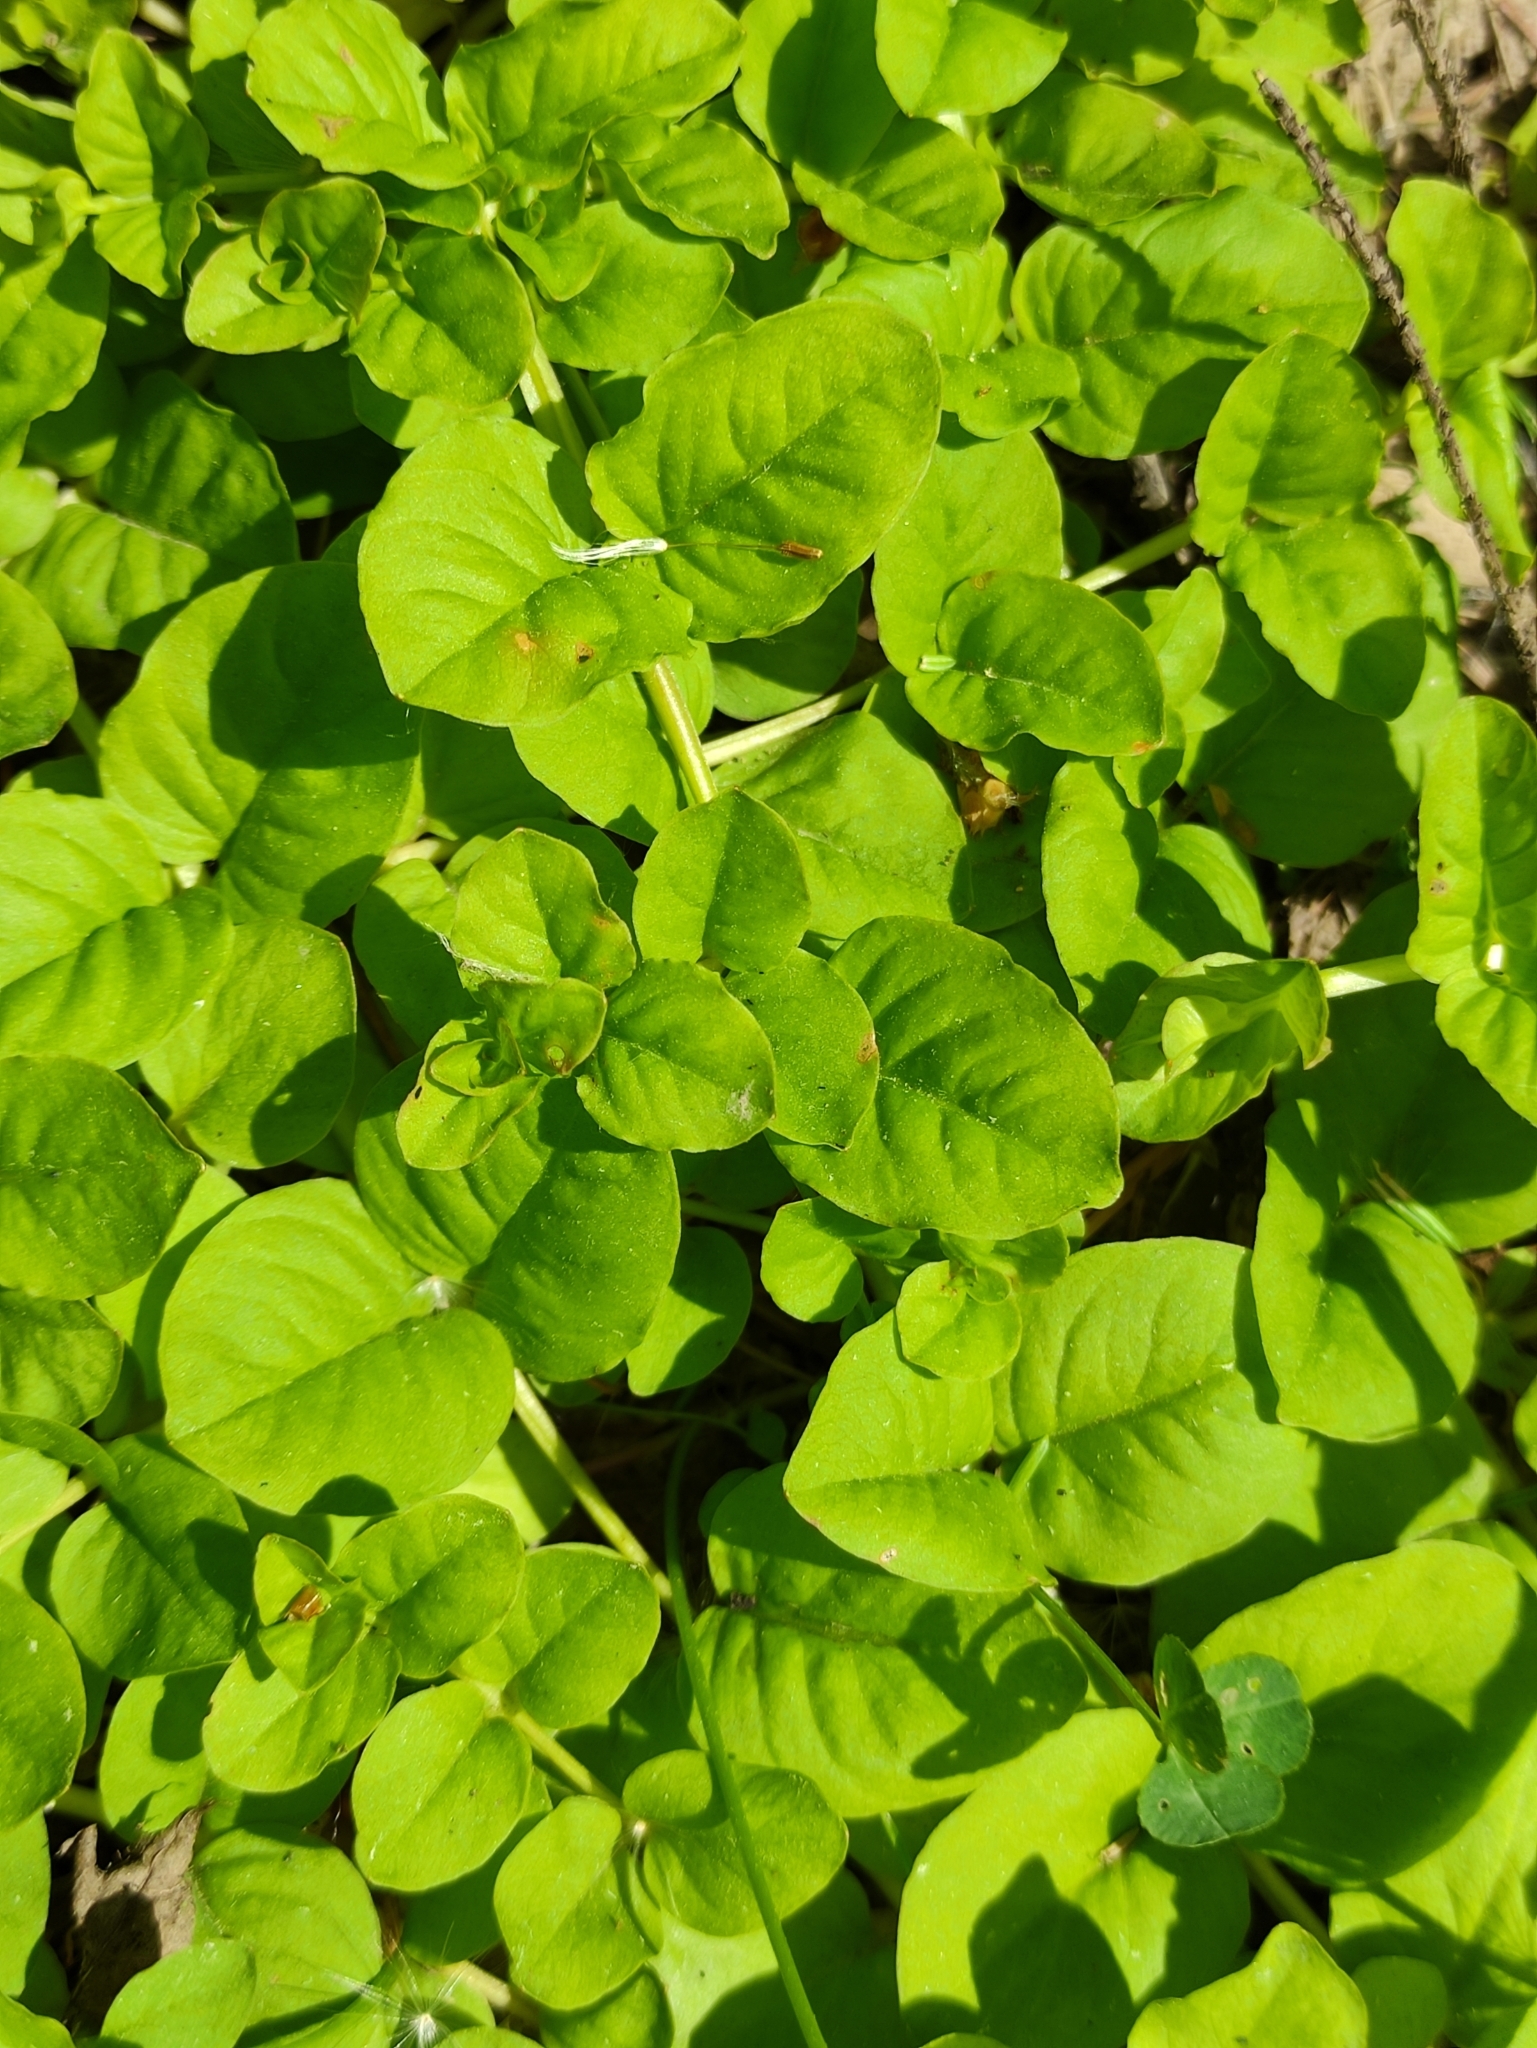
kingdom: Plantae
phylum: Tracheophyta
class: Magnoliopsida
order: Ericales
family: Primulaceae
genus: Lysimachia
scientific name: Lysimachia nummularia
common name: Moneywort
